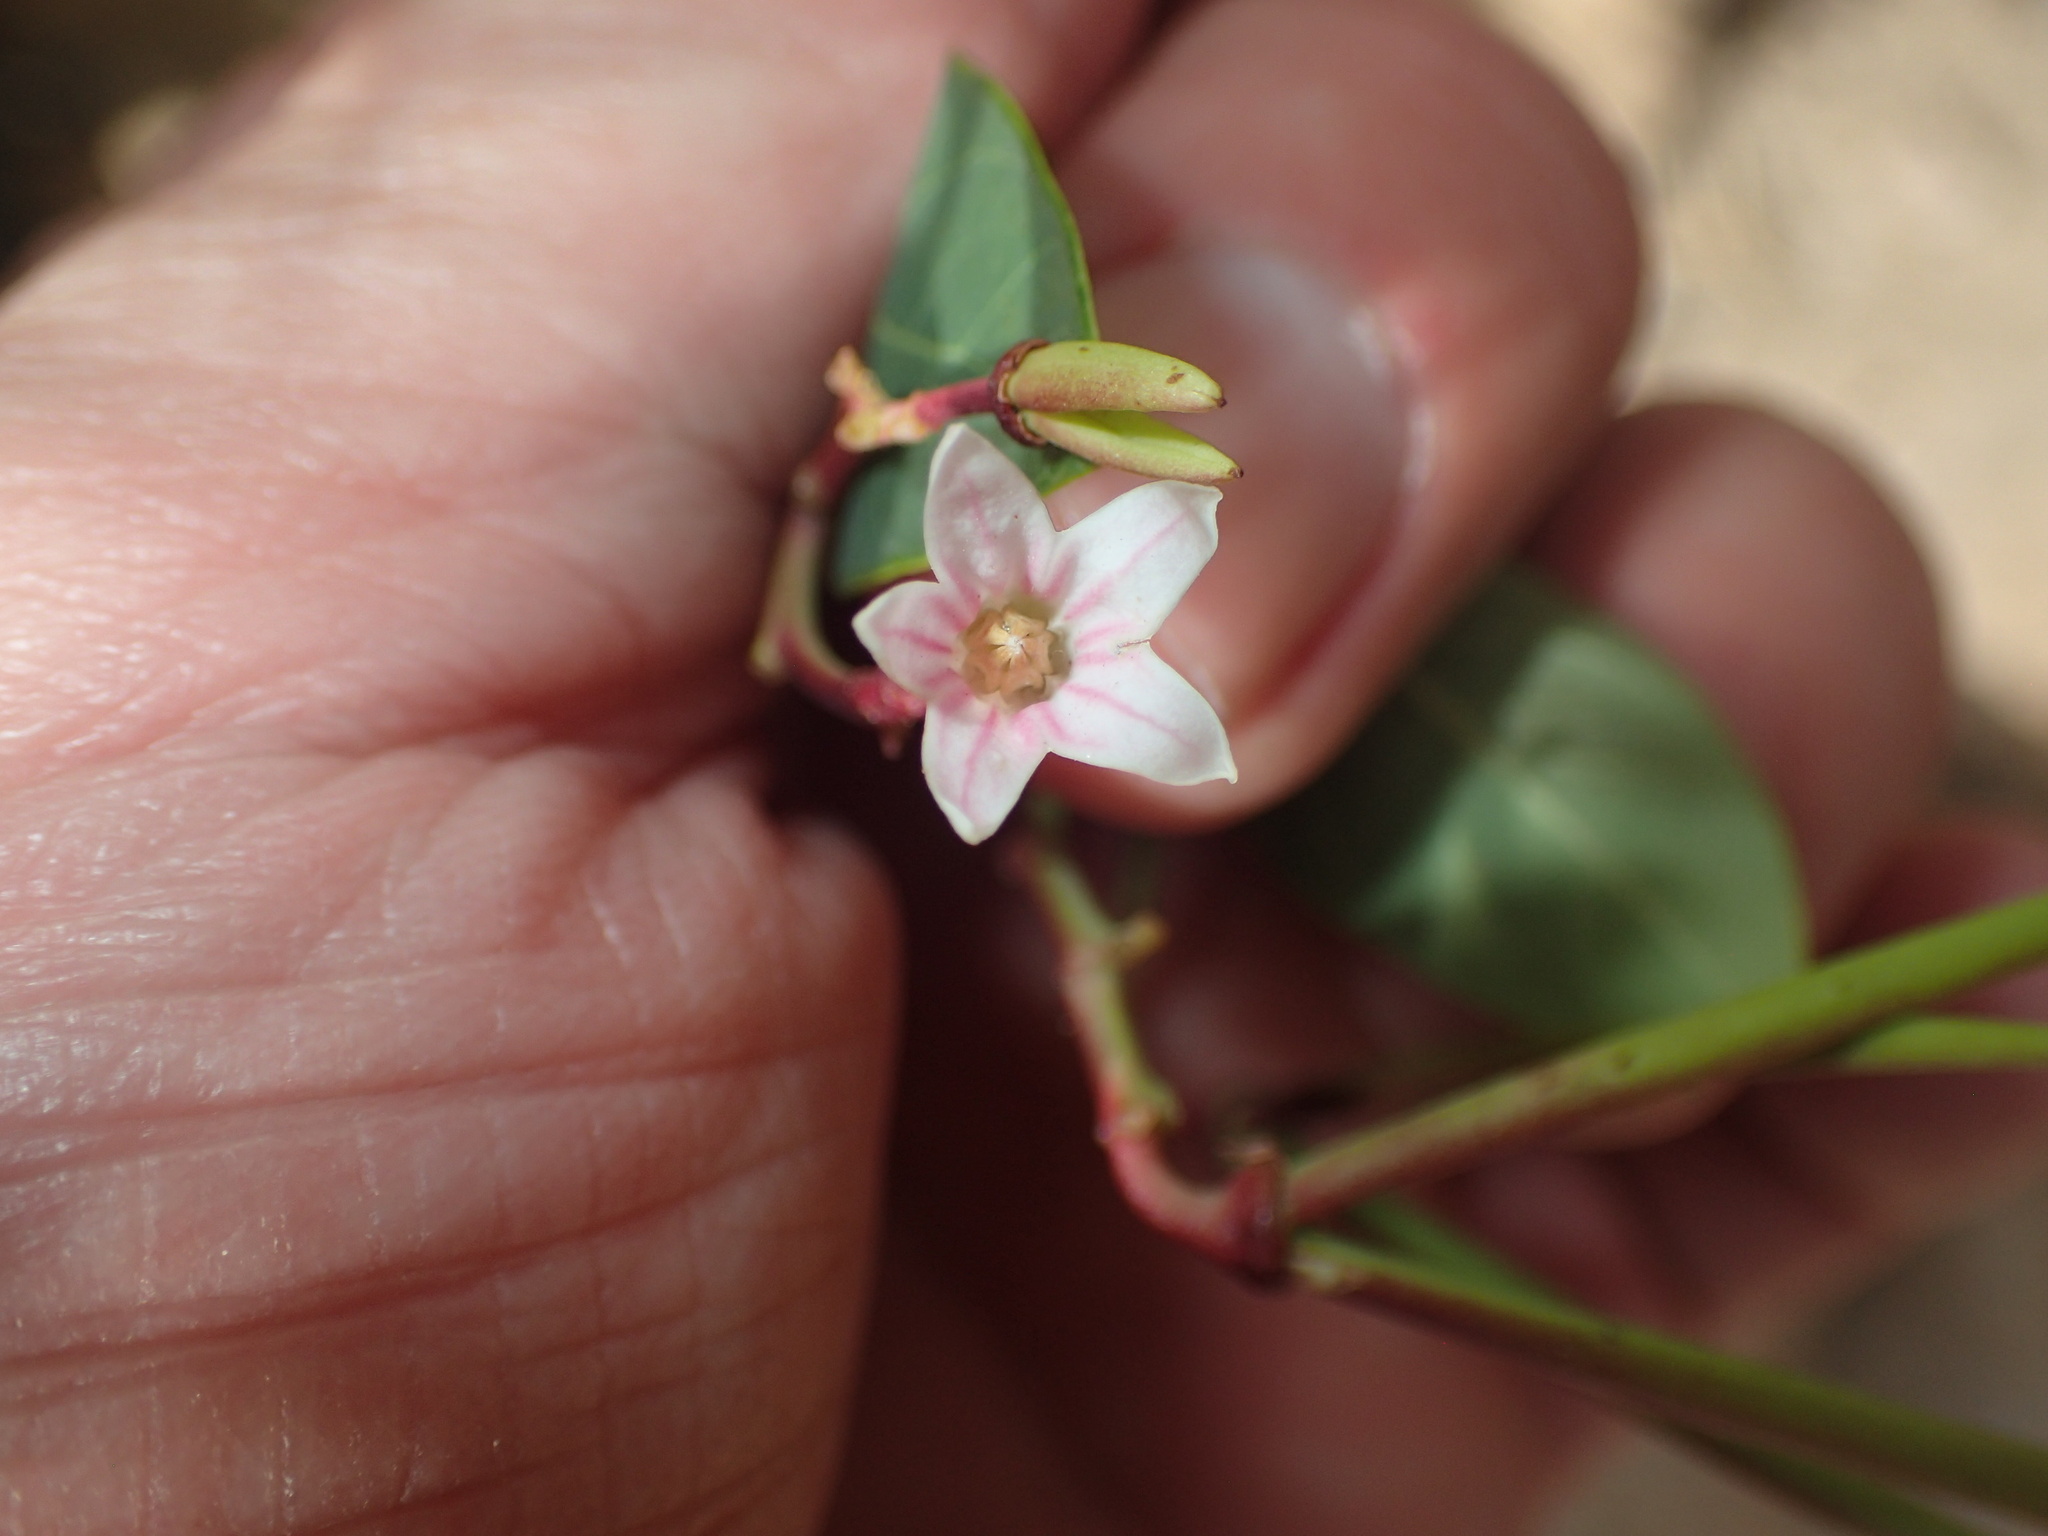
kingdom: Plantae
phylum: Tracheophyta
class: Magnoliopsida
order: Gentianales
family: Apocynaceae
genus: Apocynum
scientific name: Apocynum androsaemifolium
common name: Spreading dogbane
